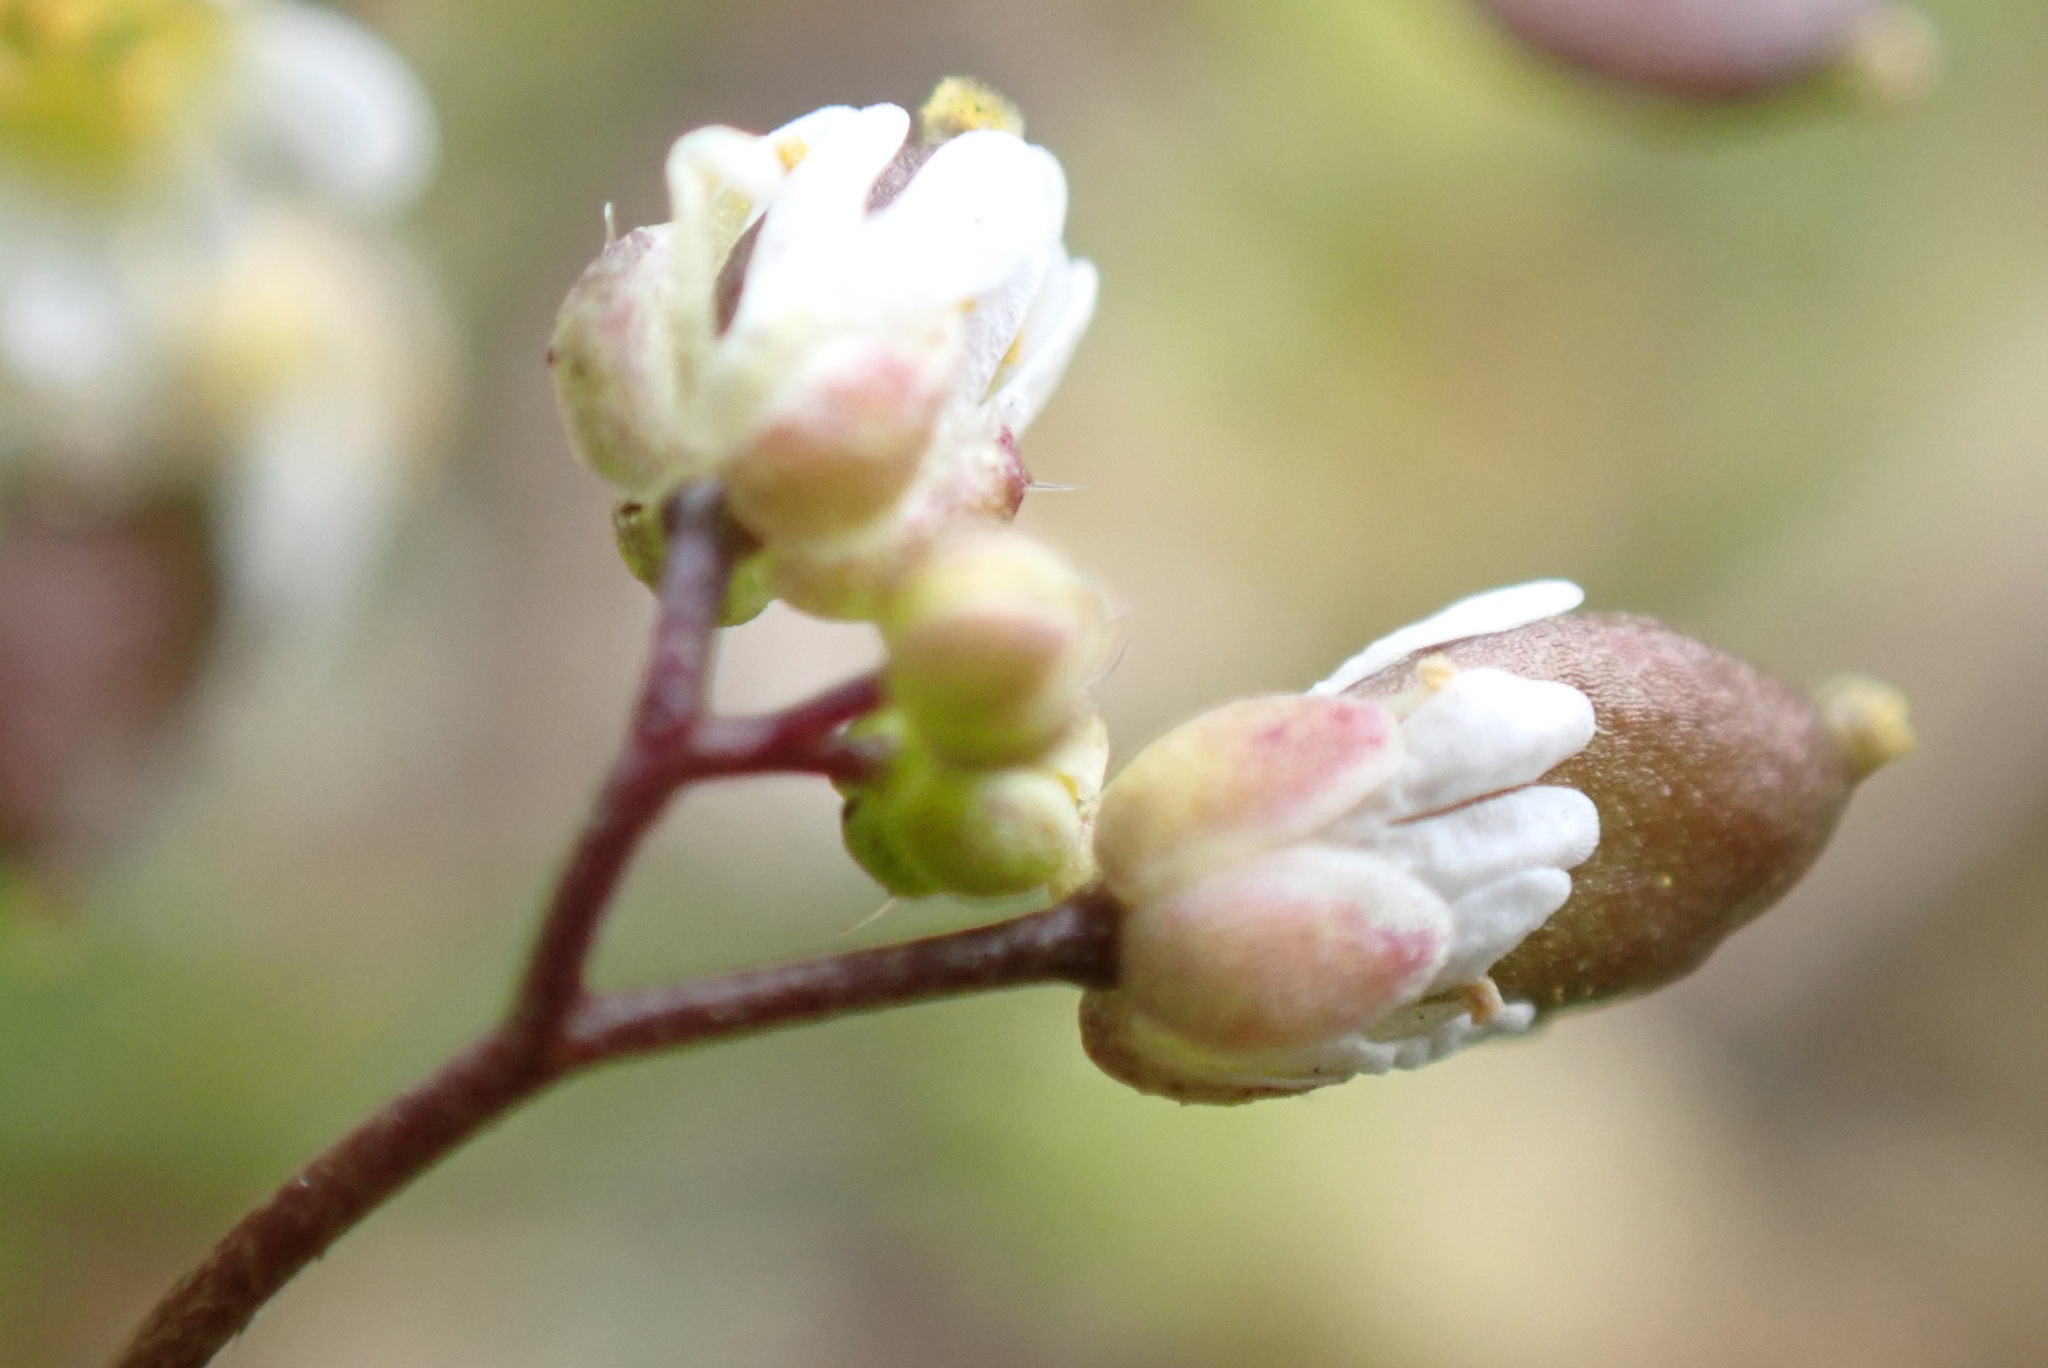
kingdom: Plantae
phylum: Tracheophyta
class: Magnoliopsida
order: Brassicales
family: Brassicaceae
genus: Draba
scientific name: Draba verna
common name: Spring draba
